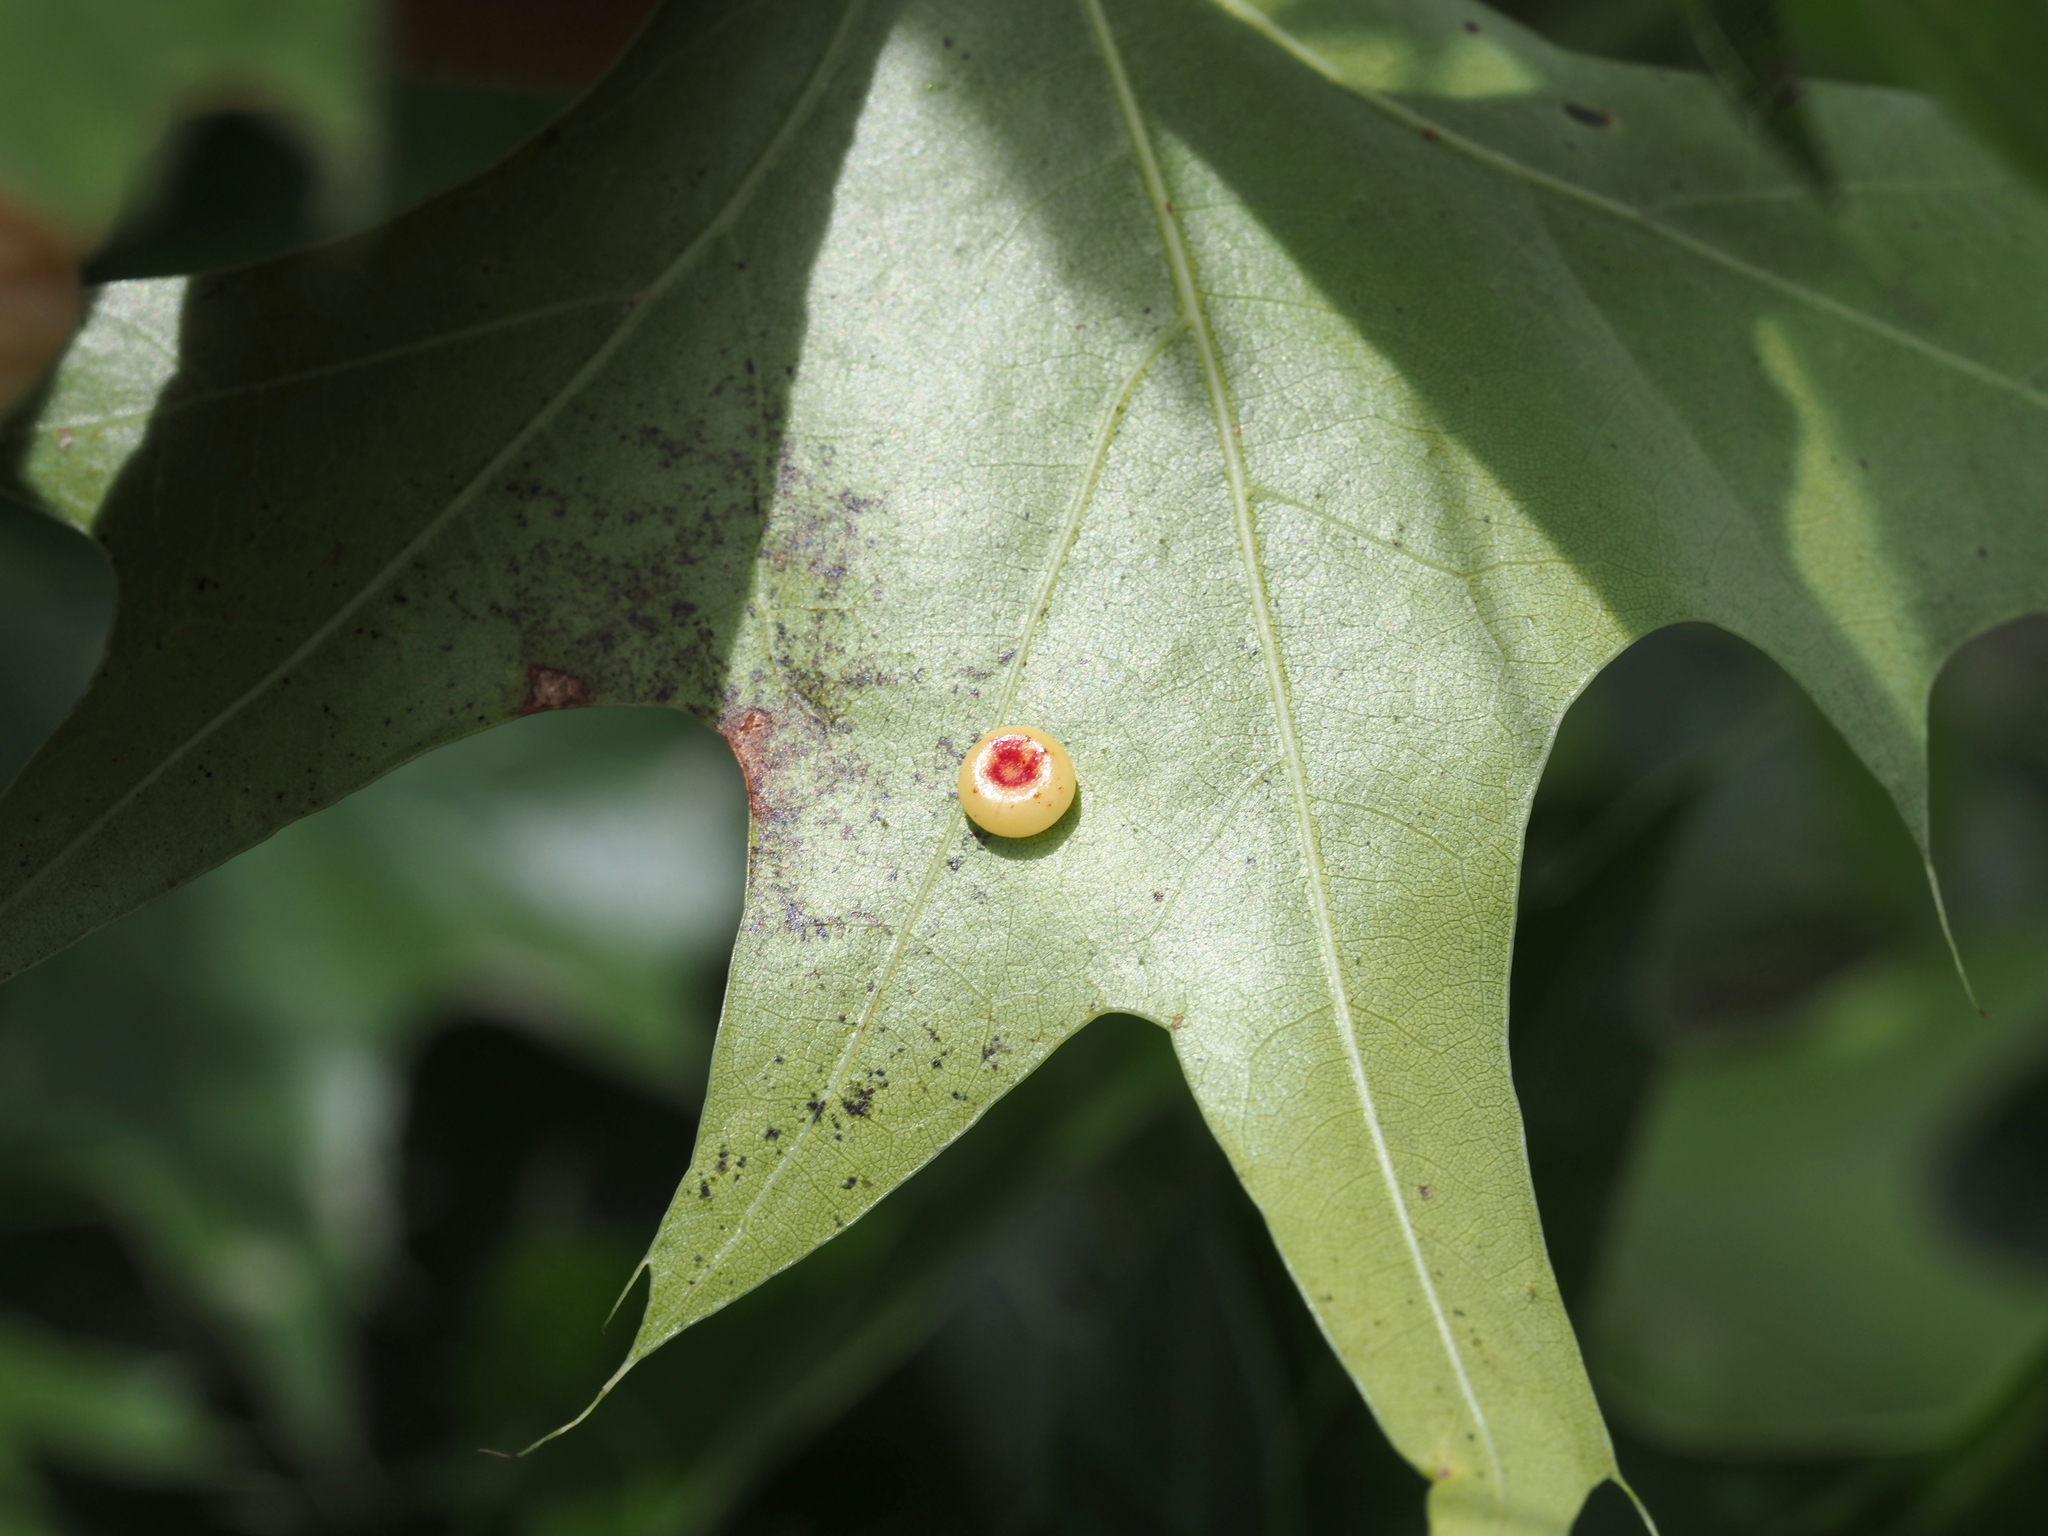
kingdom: Animalia
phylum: Arthropoda
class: Insecta
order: Hymenoptera
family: Cynipidae
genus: Dryocosmus
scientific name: Dryocosmus
